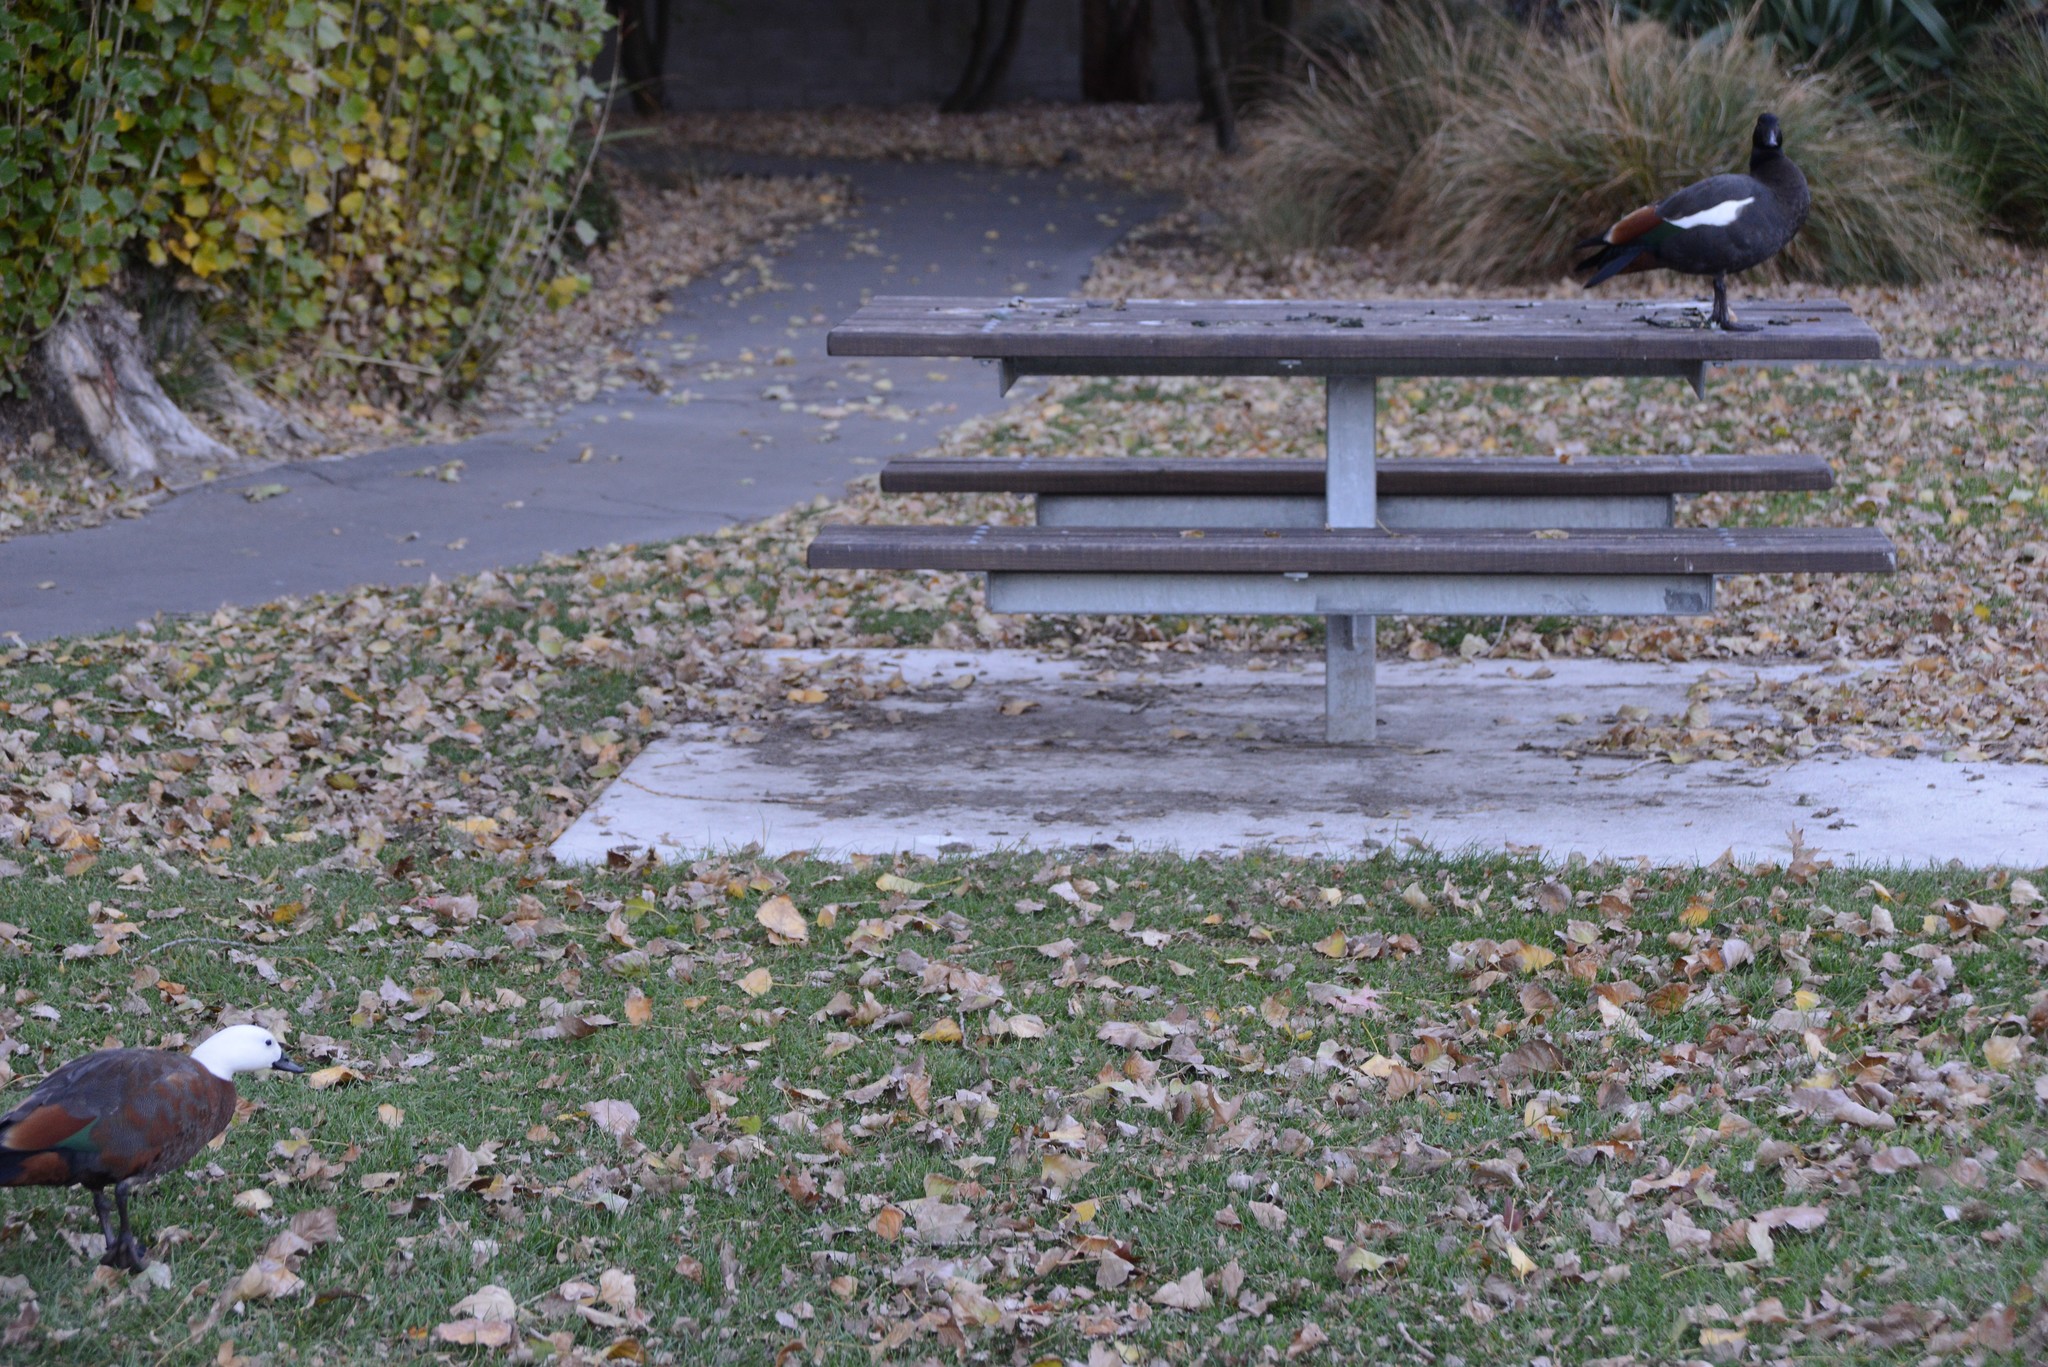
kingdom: Animalia
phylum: Chordata
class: Aves
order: Anseriformes
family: Anatidae
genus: Tadorna
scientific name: Tadorna variegata
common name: Paradise shelduck
